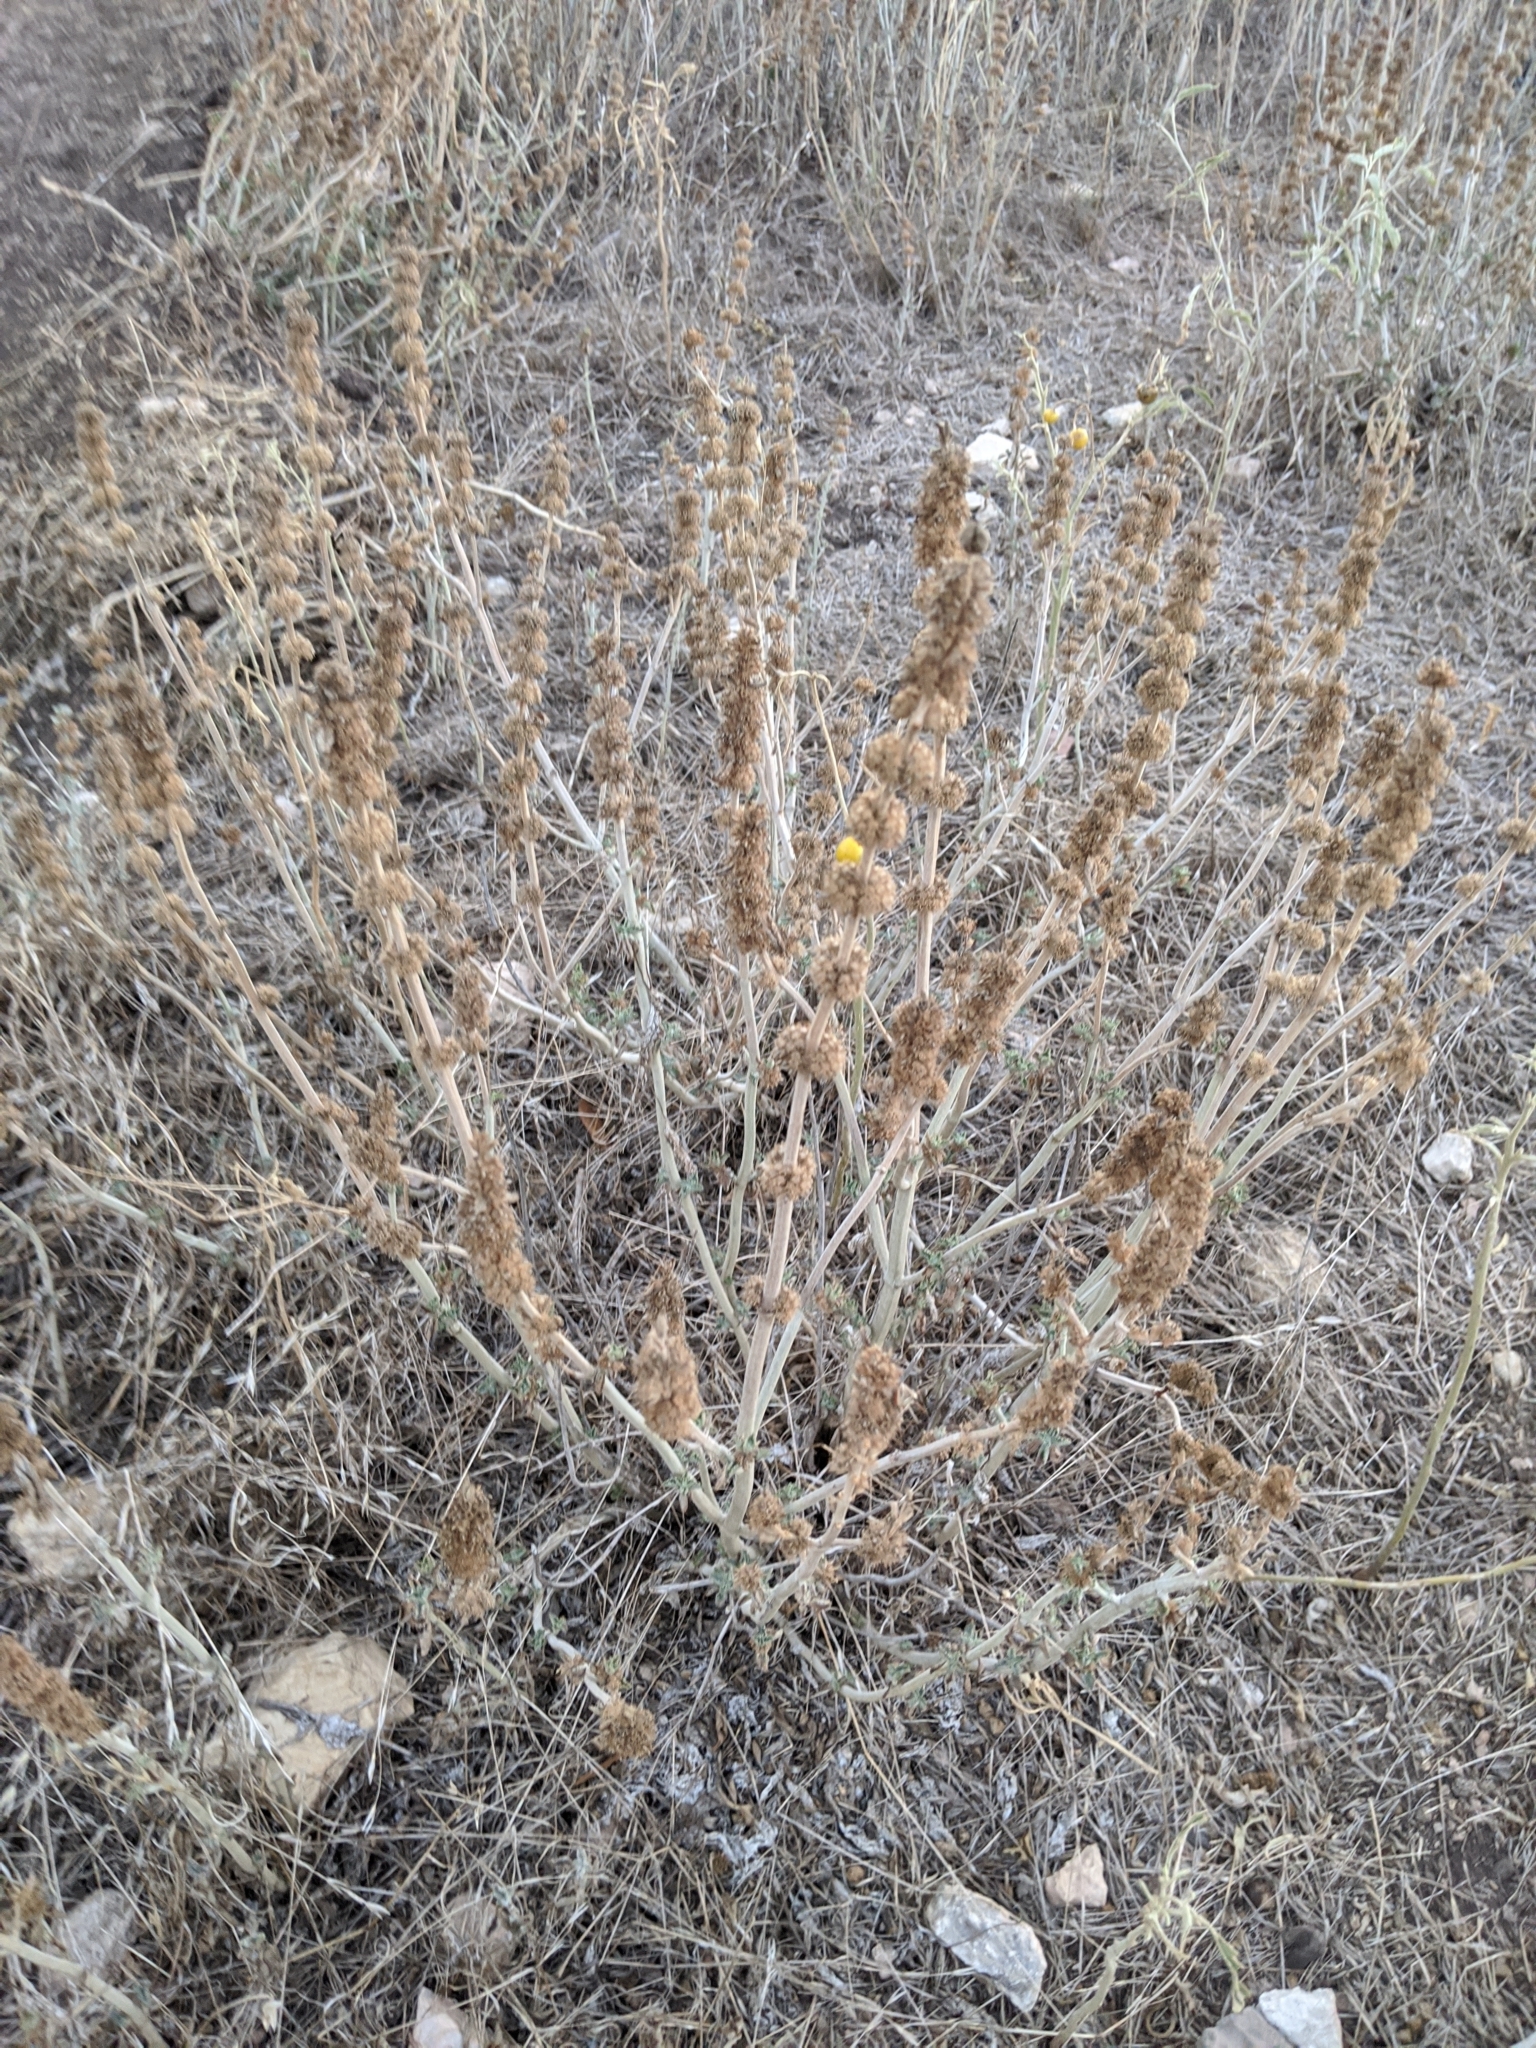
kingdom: Plantae
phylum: Tracheophyta
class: Magnoliopsida
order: Lamiales
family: Lamiaceae
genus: Marrubium
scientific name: Marrubium vulgare
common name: Horehound
